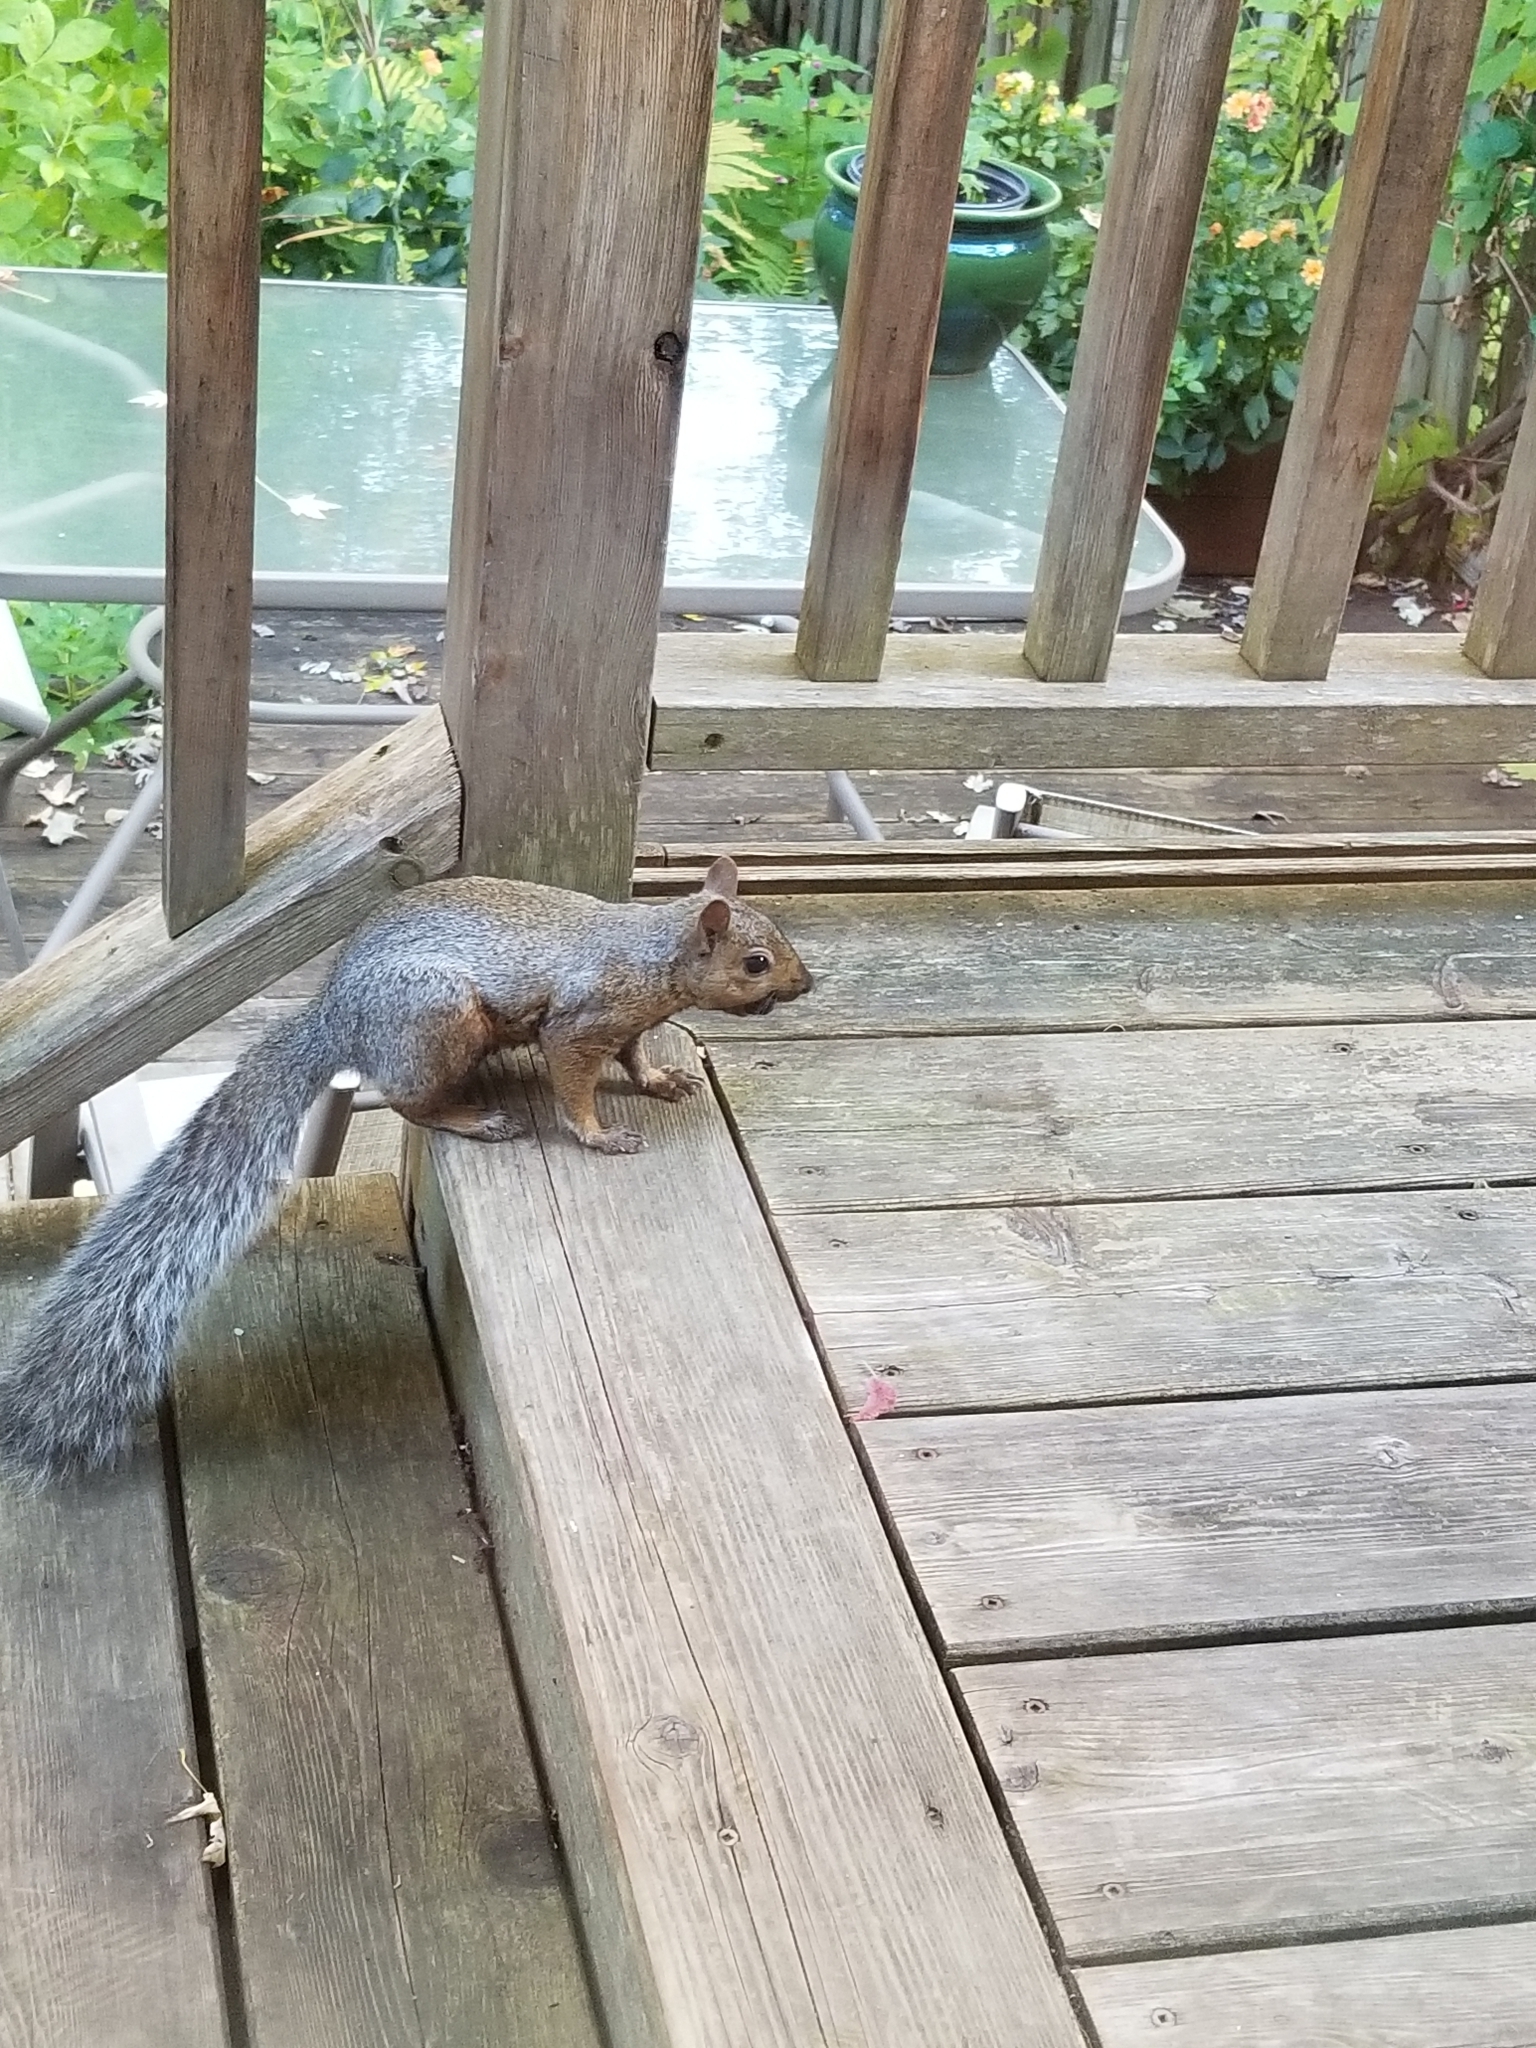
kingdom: Animalia
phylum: Chordata
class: Mammalia
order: Rodentia
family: Sciuridae
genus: Sciurus
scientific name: Sciurus carolinensis
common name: Eastern gray squirrel
